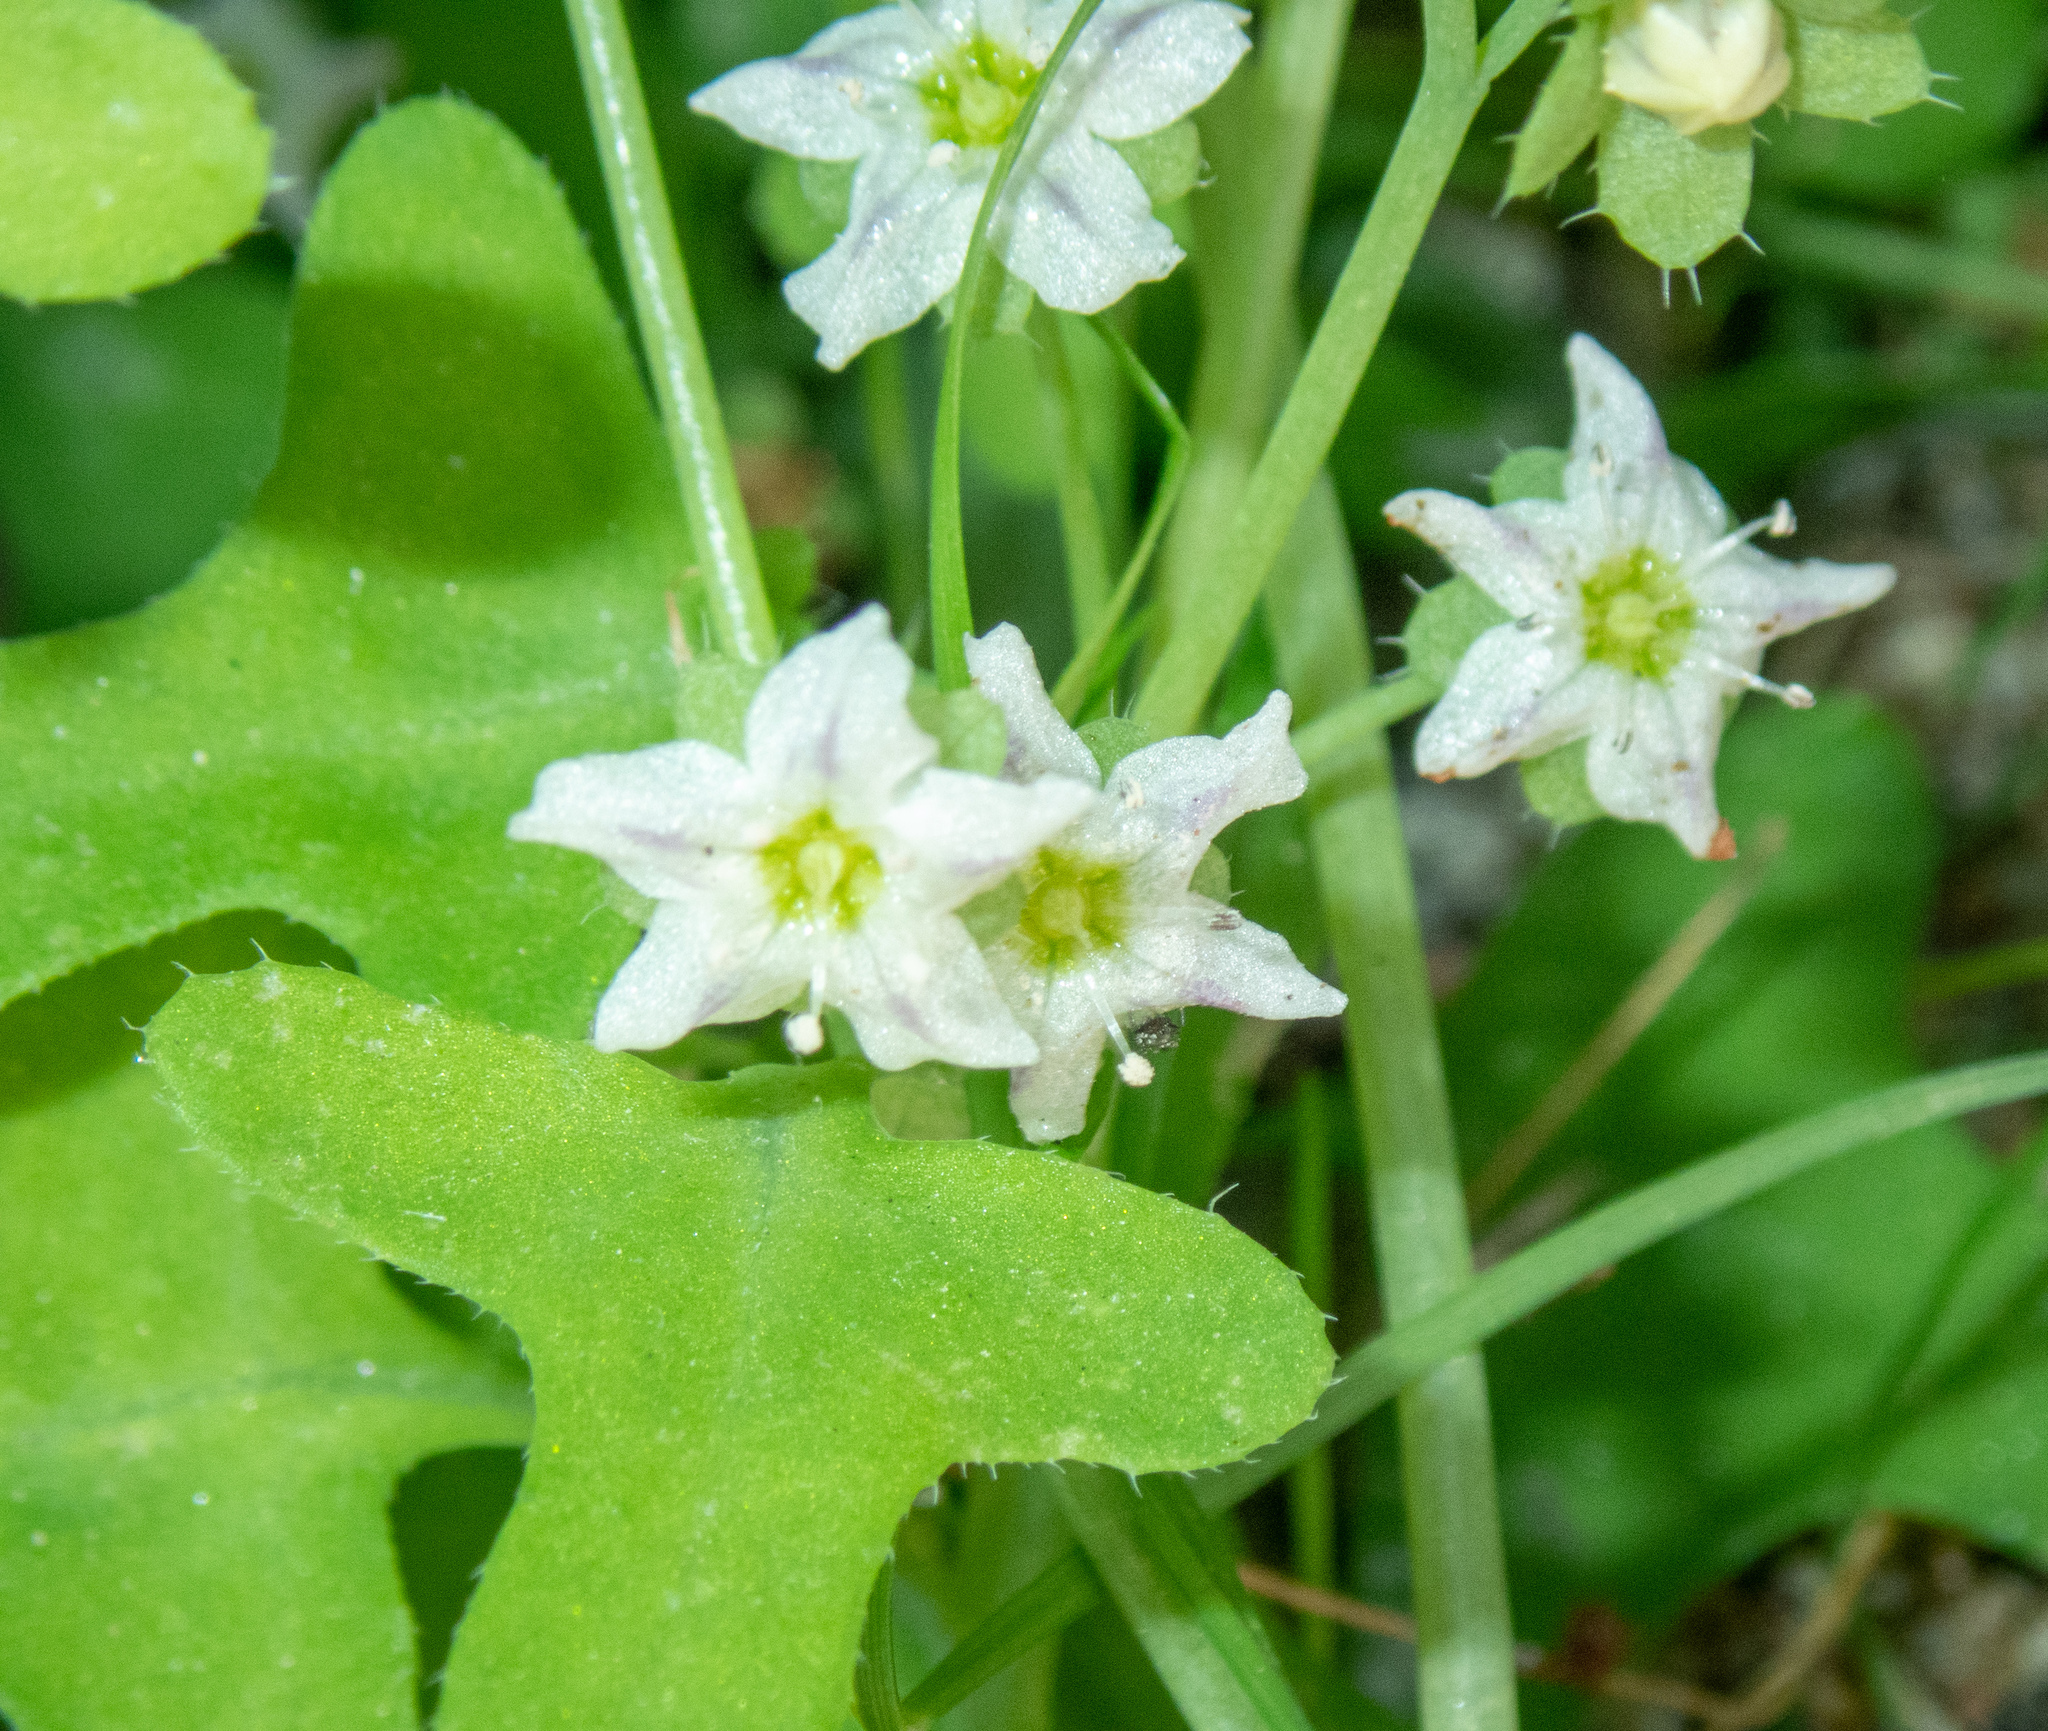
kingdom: Plantae
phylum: Tracheophyta
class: Magnoliopsida
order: Boraginales
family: Hydrophyllaceae
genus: Pholistoma
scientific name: Pholistoma membranaceum
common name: White fiesta-flower
